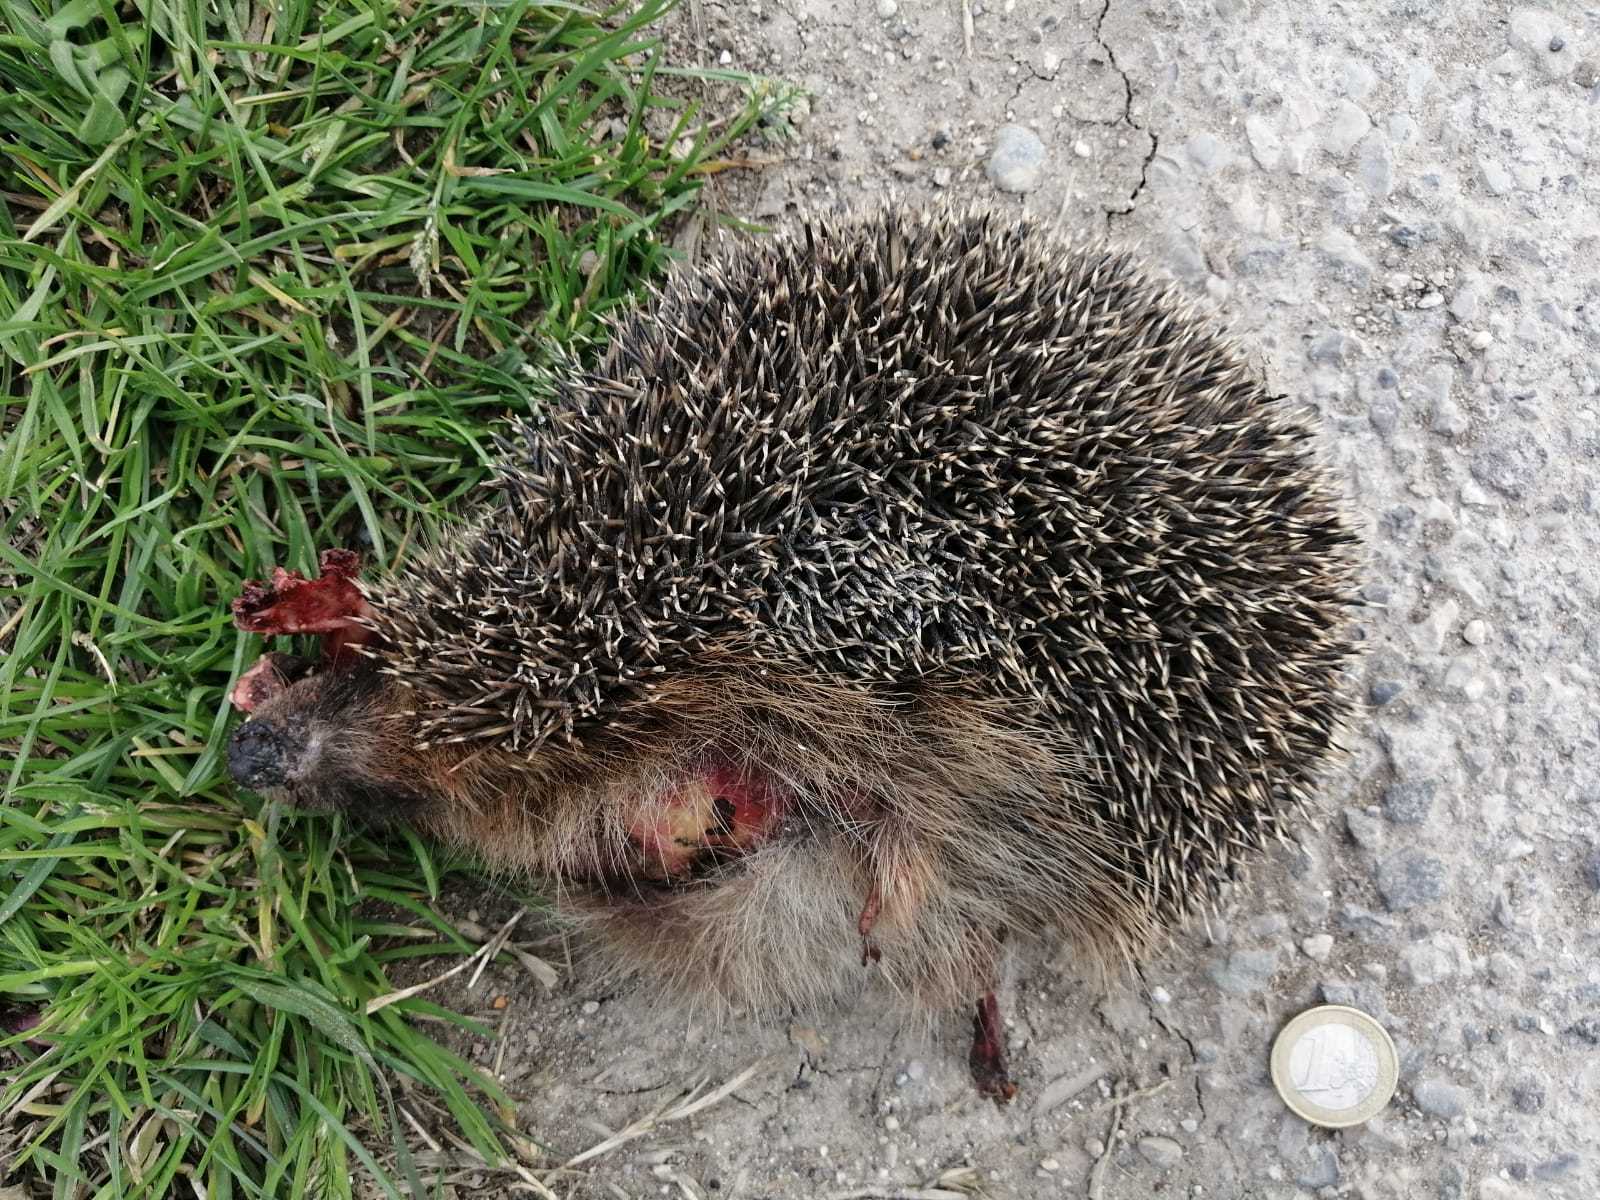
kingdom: Animalia
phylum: Chordata
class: Mammalia
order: Erinaceomorpha
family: Erinaceidae
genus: Erinaceus
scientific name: Erinaceus europaeus
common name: West european hedgehog
